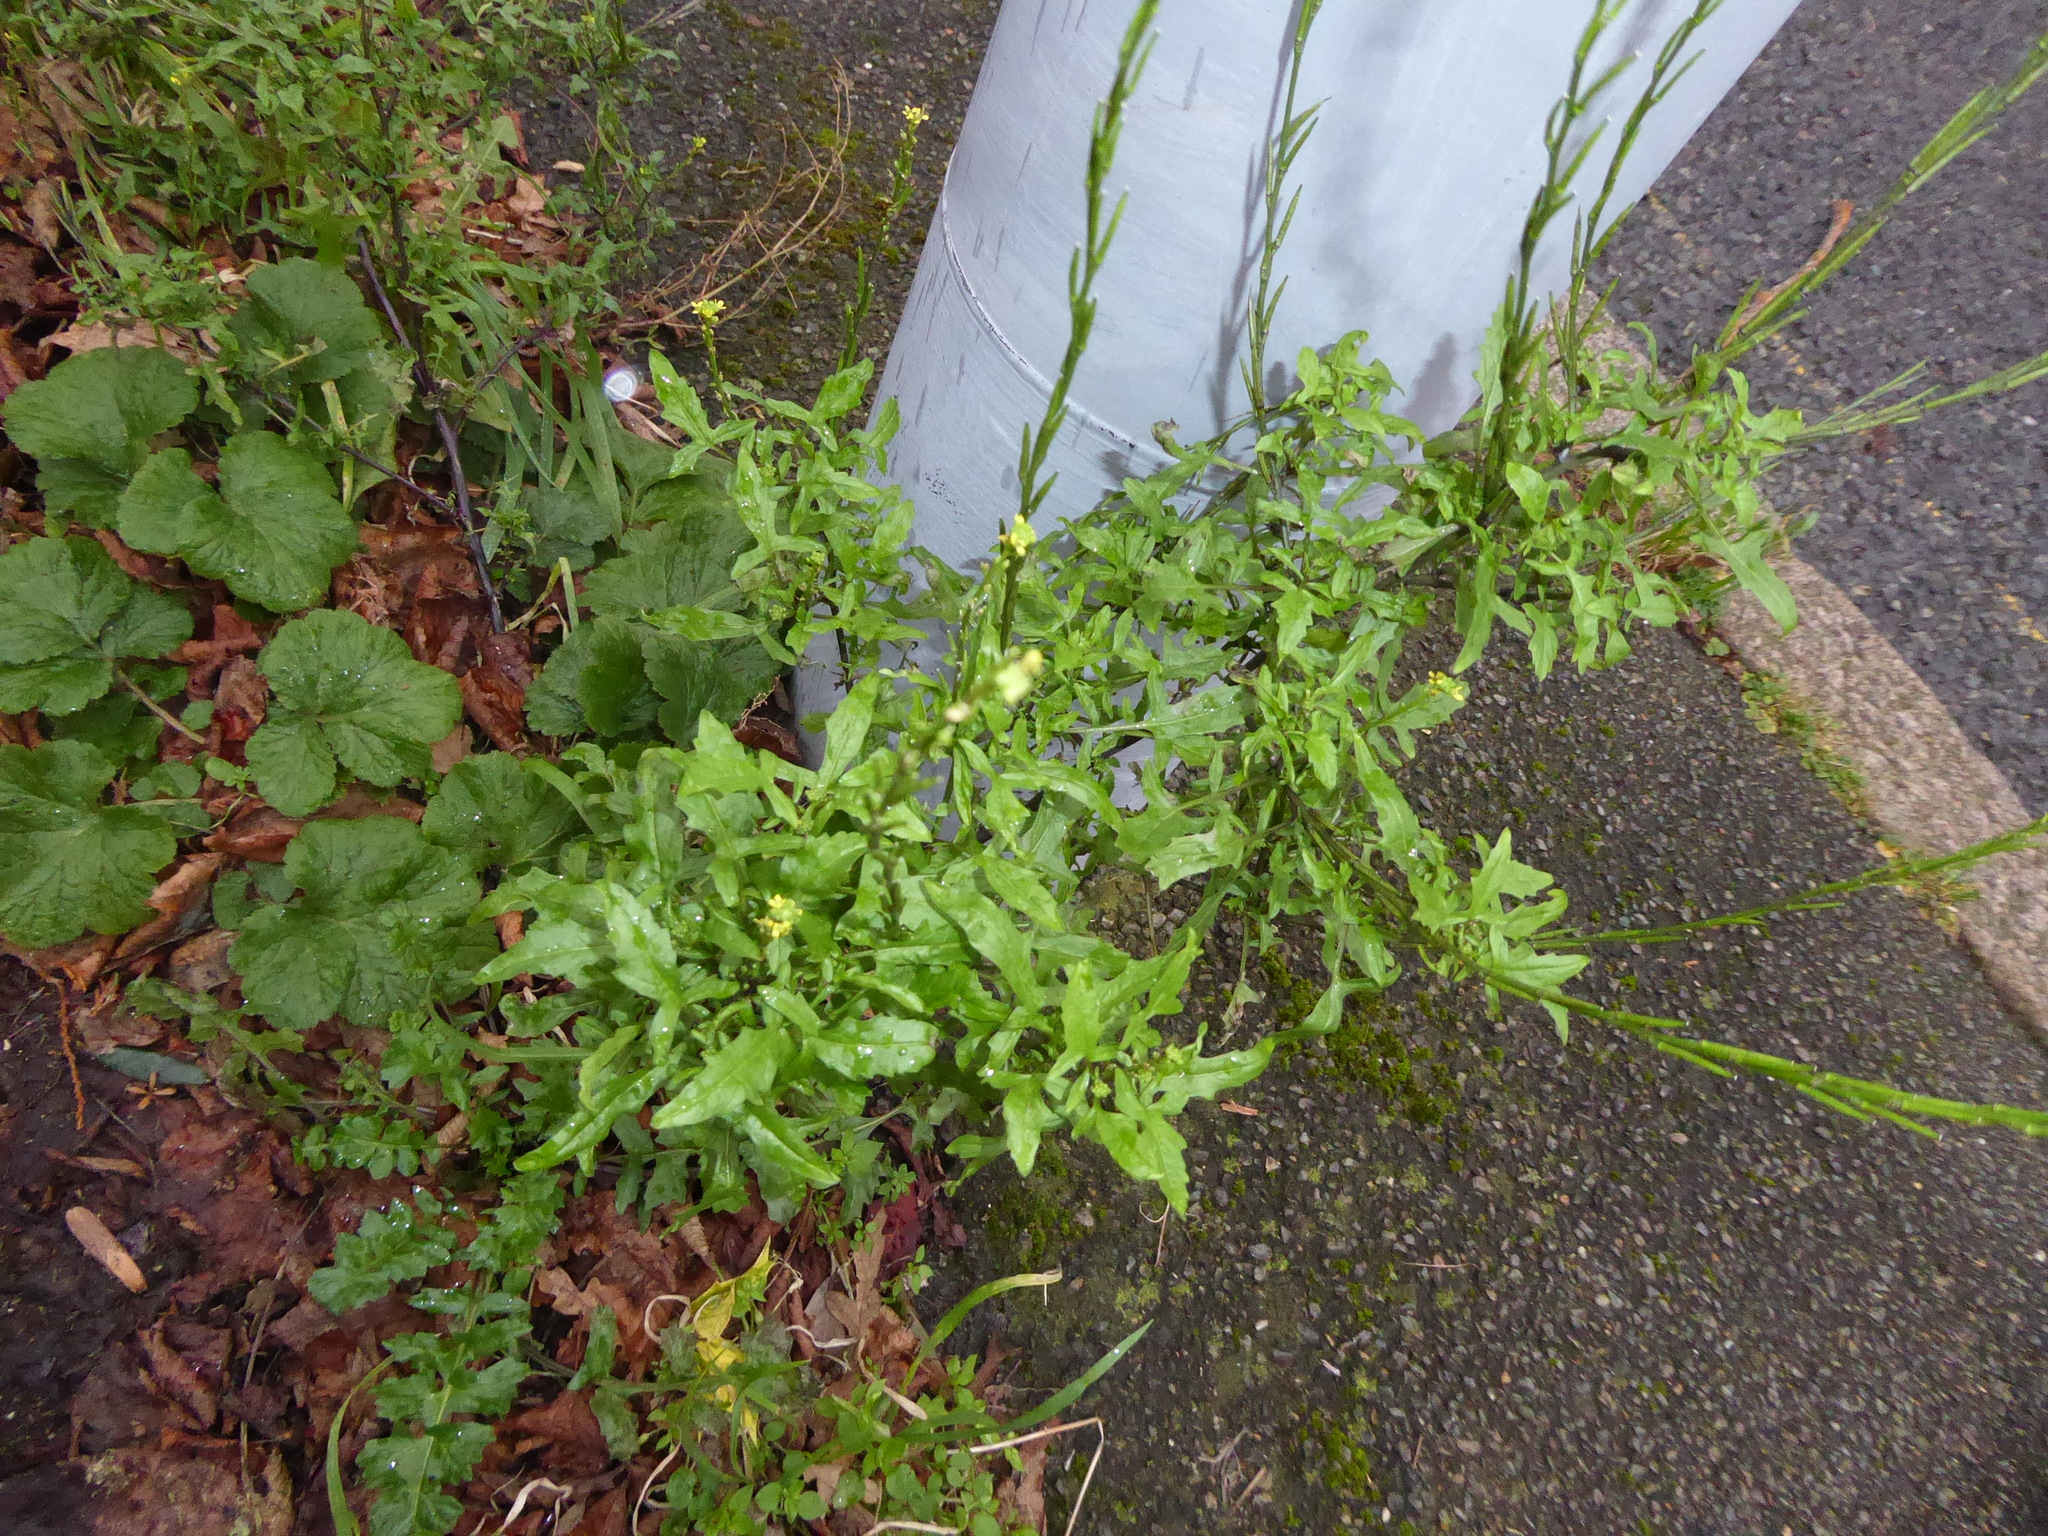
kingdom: Plantae
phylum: Tracheophyta
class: Magnoliopsida
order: Brassicales
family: Brassicaceae
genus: Sisymbrium
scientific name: Sisymbrium officinale
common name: Hedge mustard
